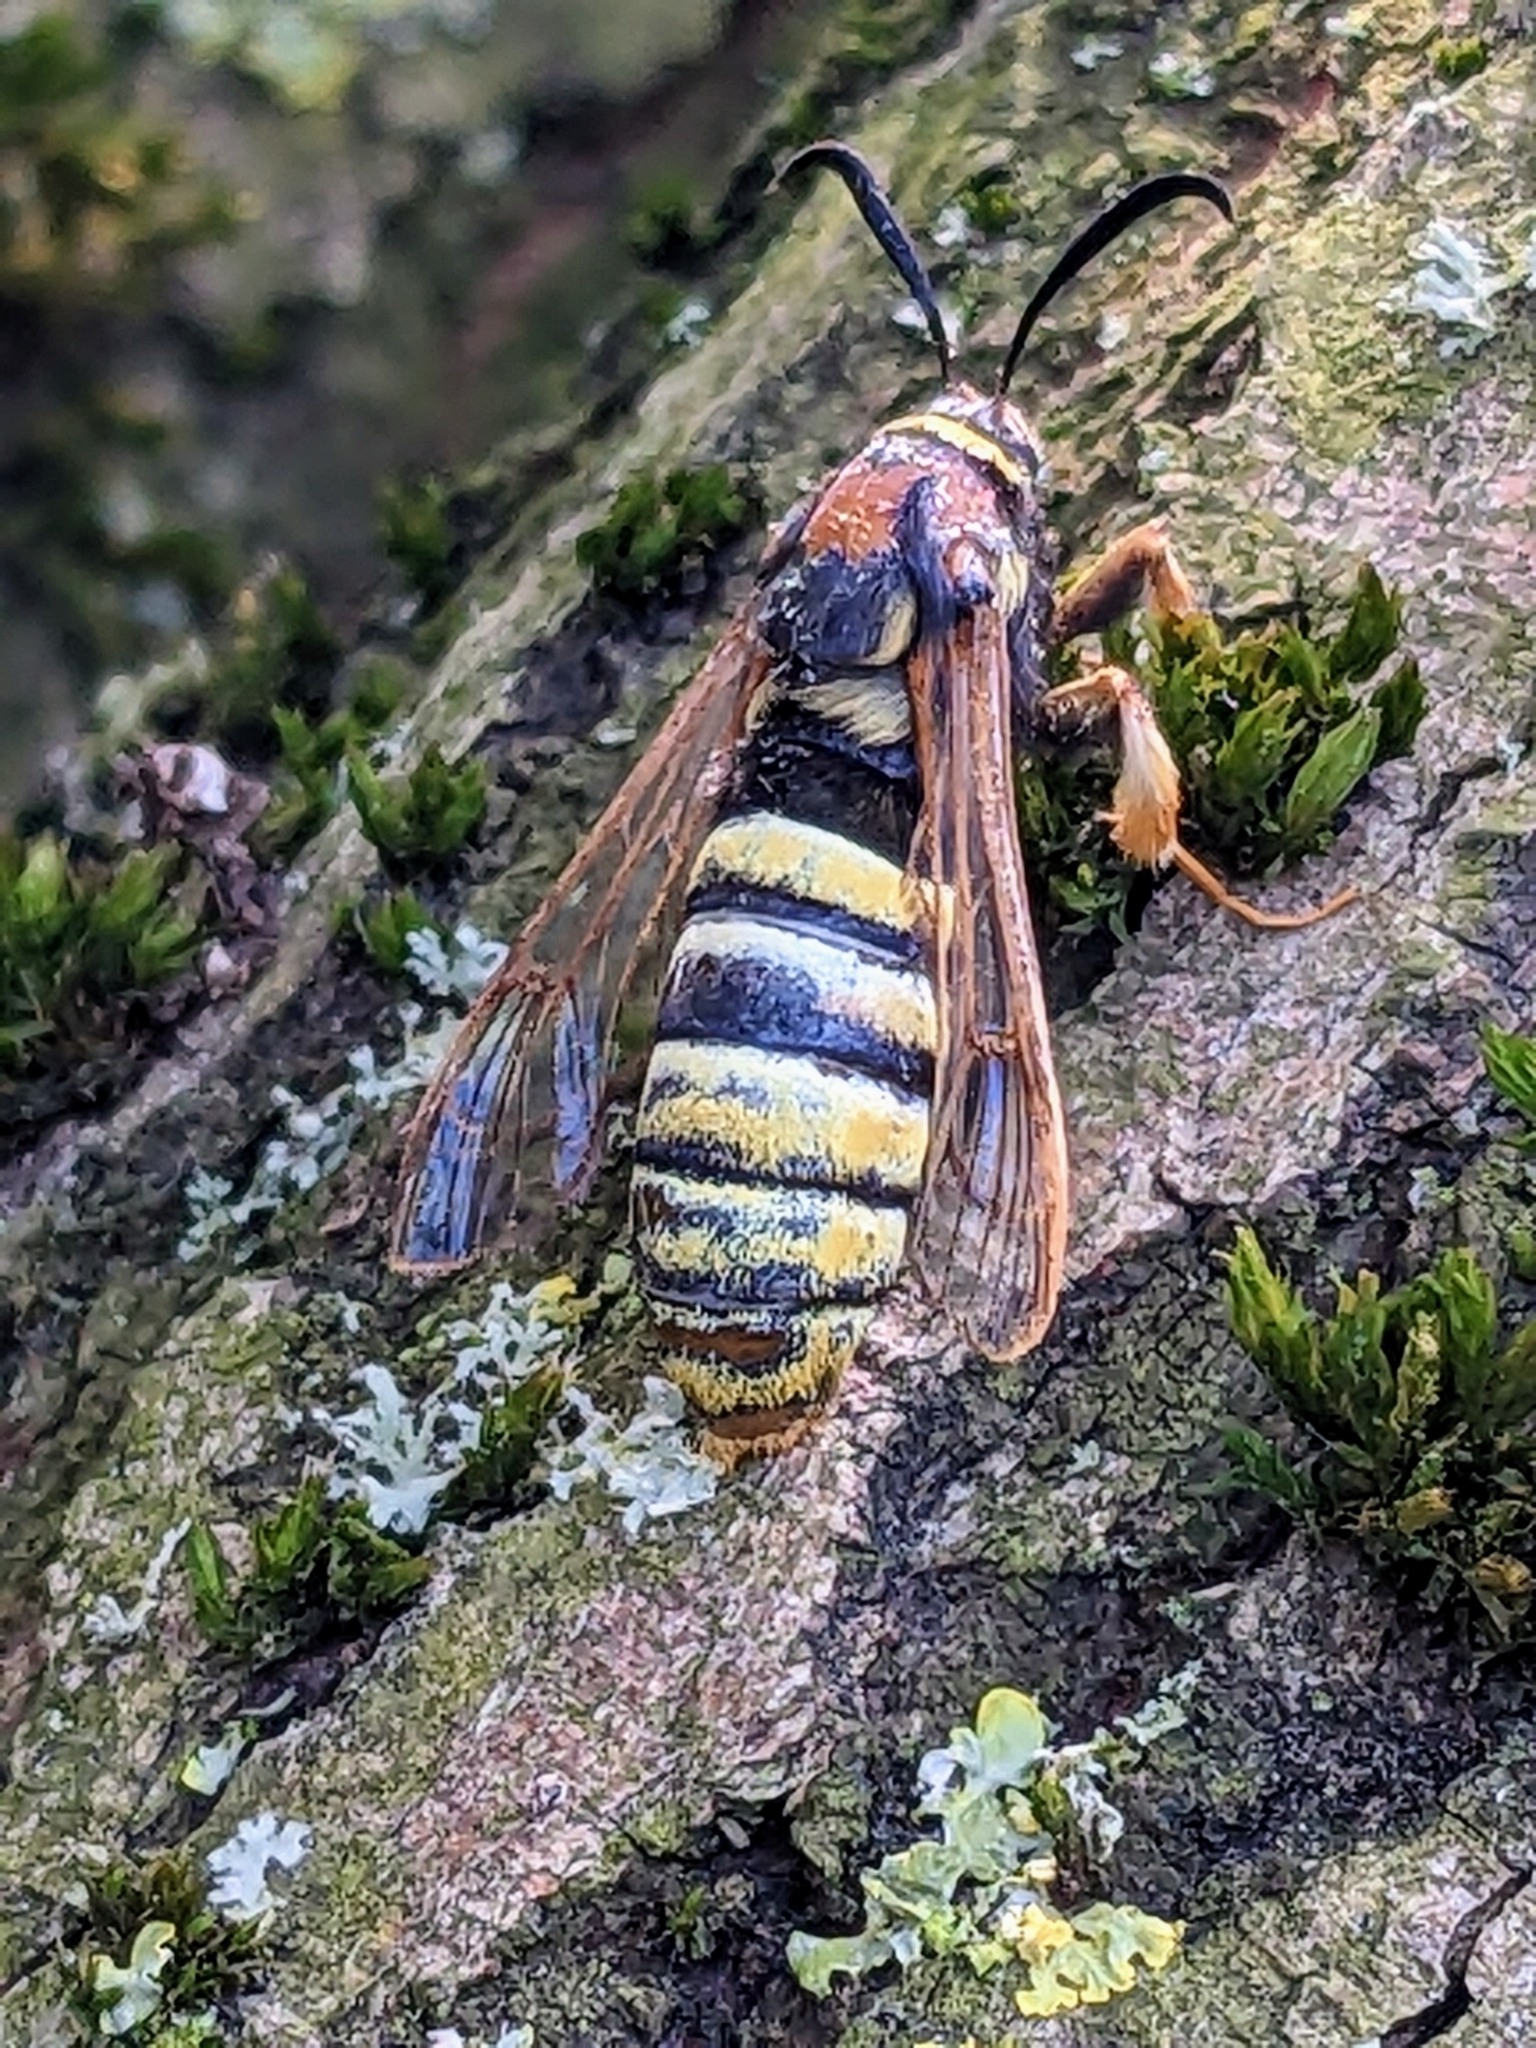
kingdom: Animalia
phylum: Arthropoda
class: Insecta
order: Lepidoptera
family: Sesiidae
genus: Sesia
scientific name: Sesia bembeciformis
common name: Lunar hornet moth
